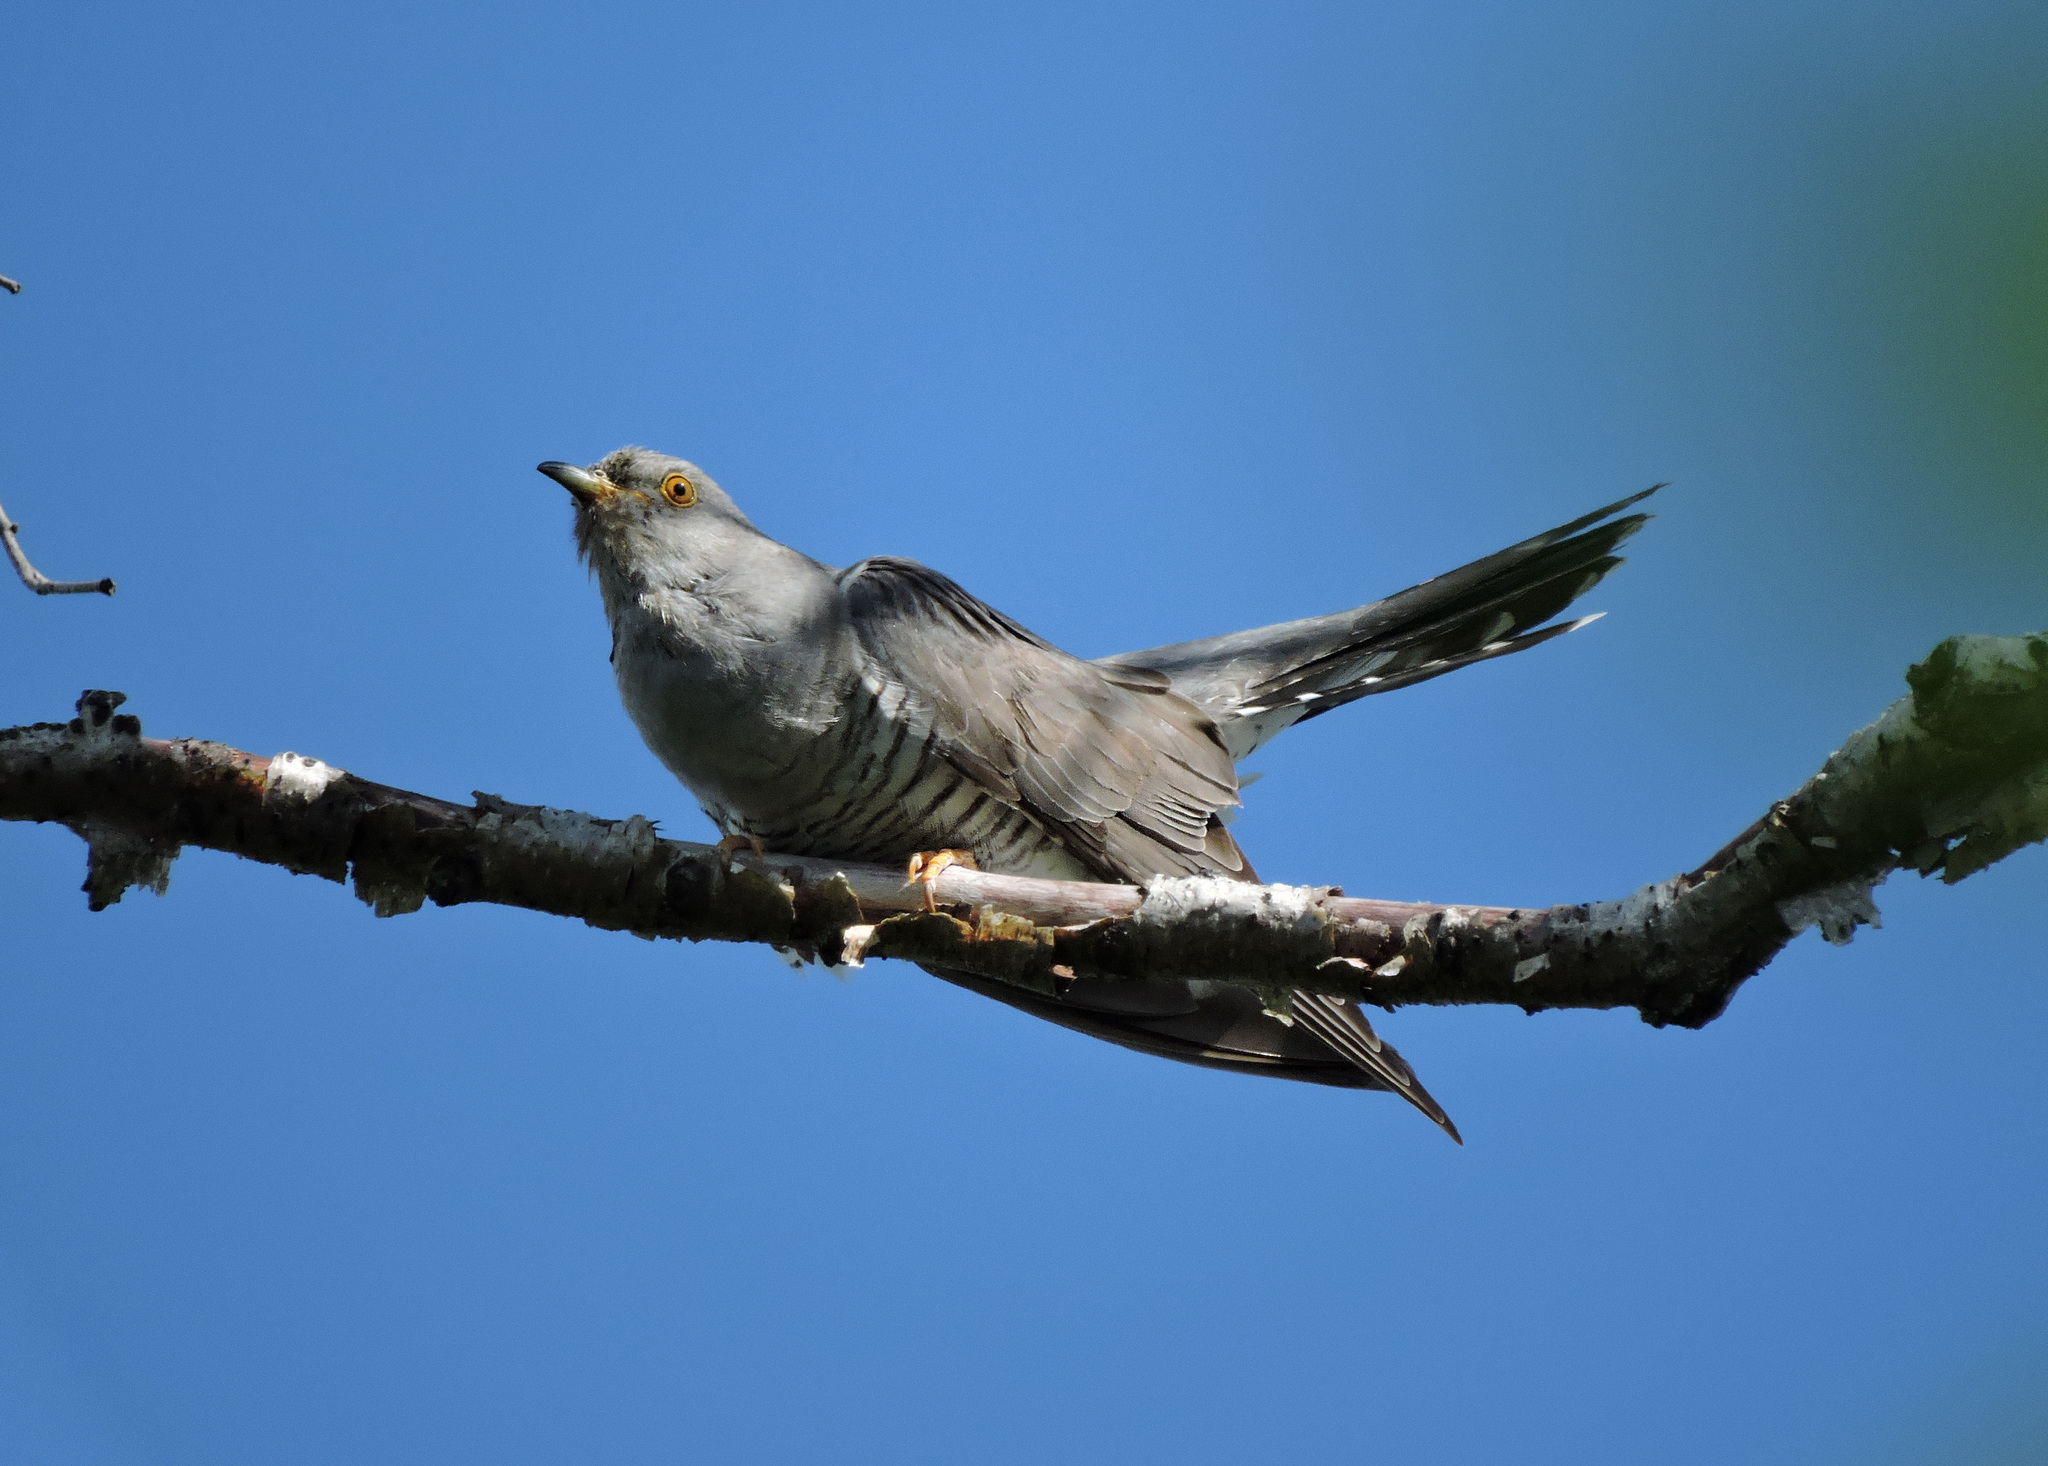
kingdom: Animalia
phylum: Chordata
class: Aves
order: Cuculiformes
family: Cuculidae
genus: Cuculus
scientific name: Cuculus canorus
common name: Common cuckoo
